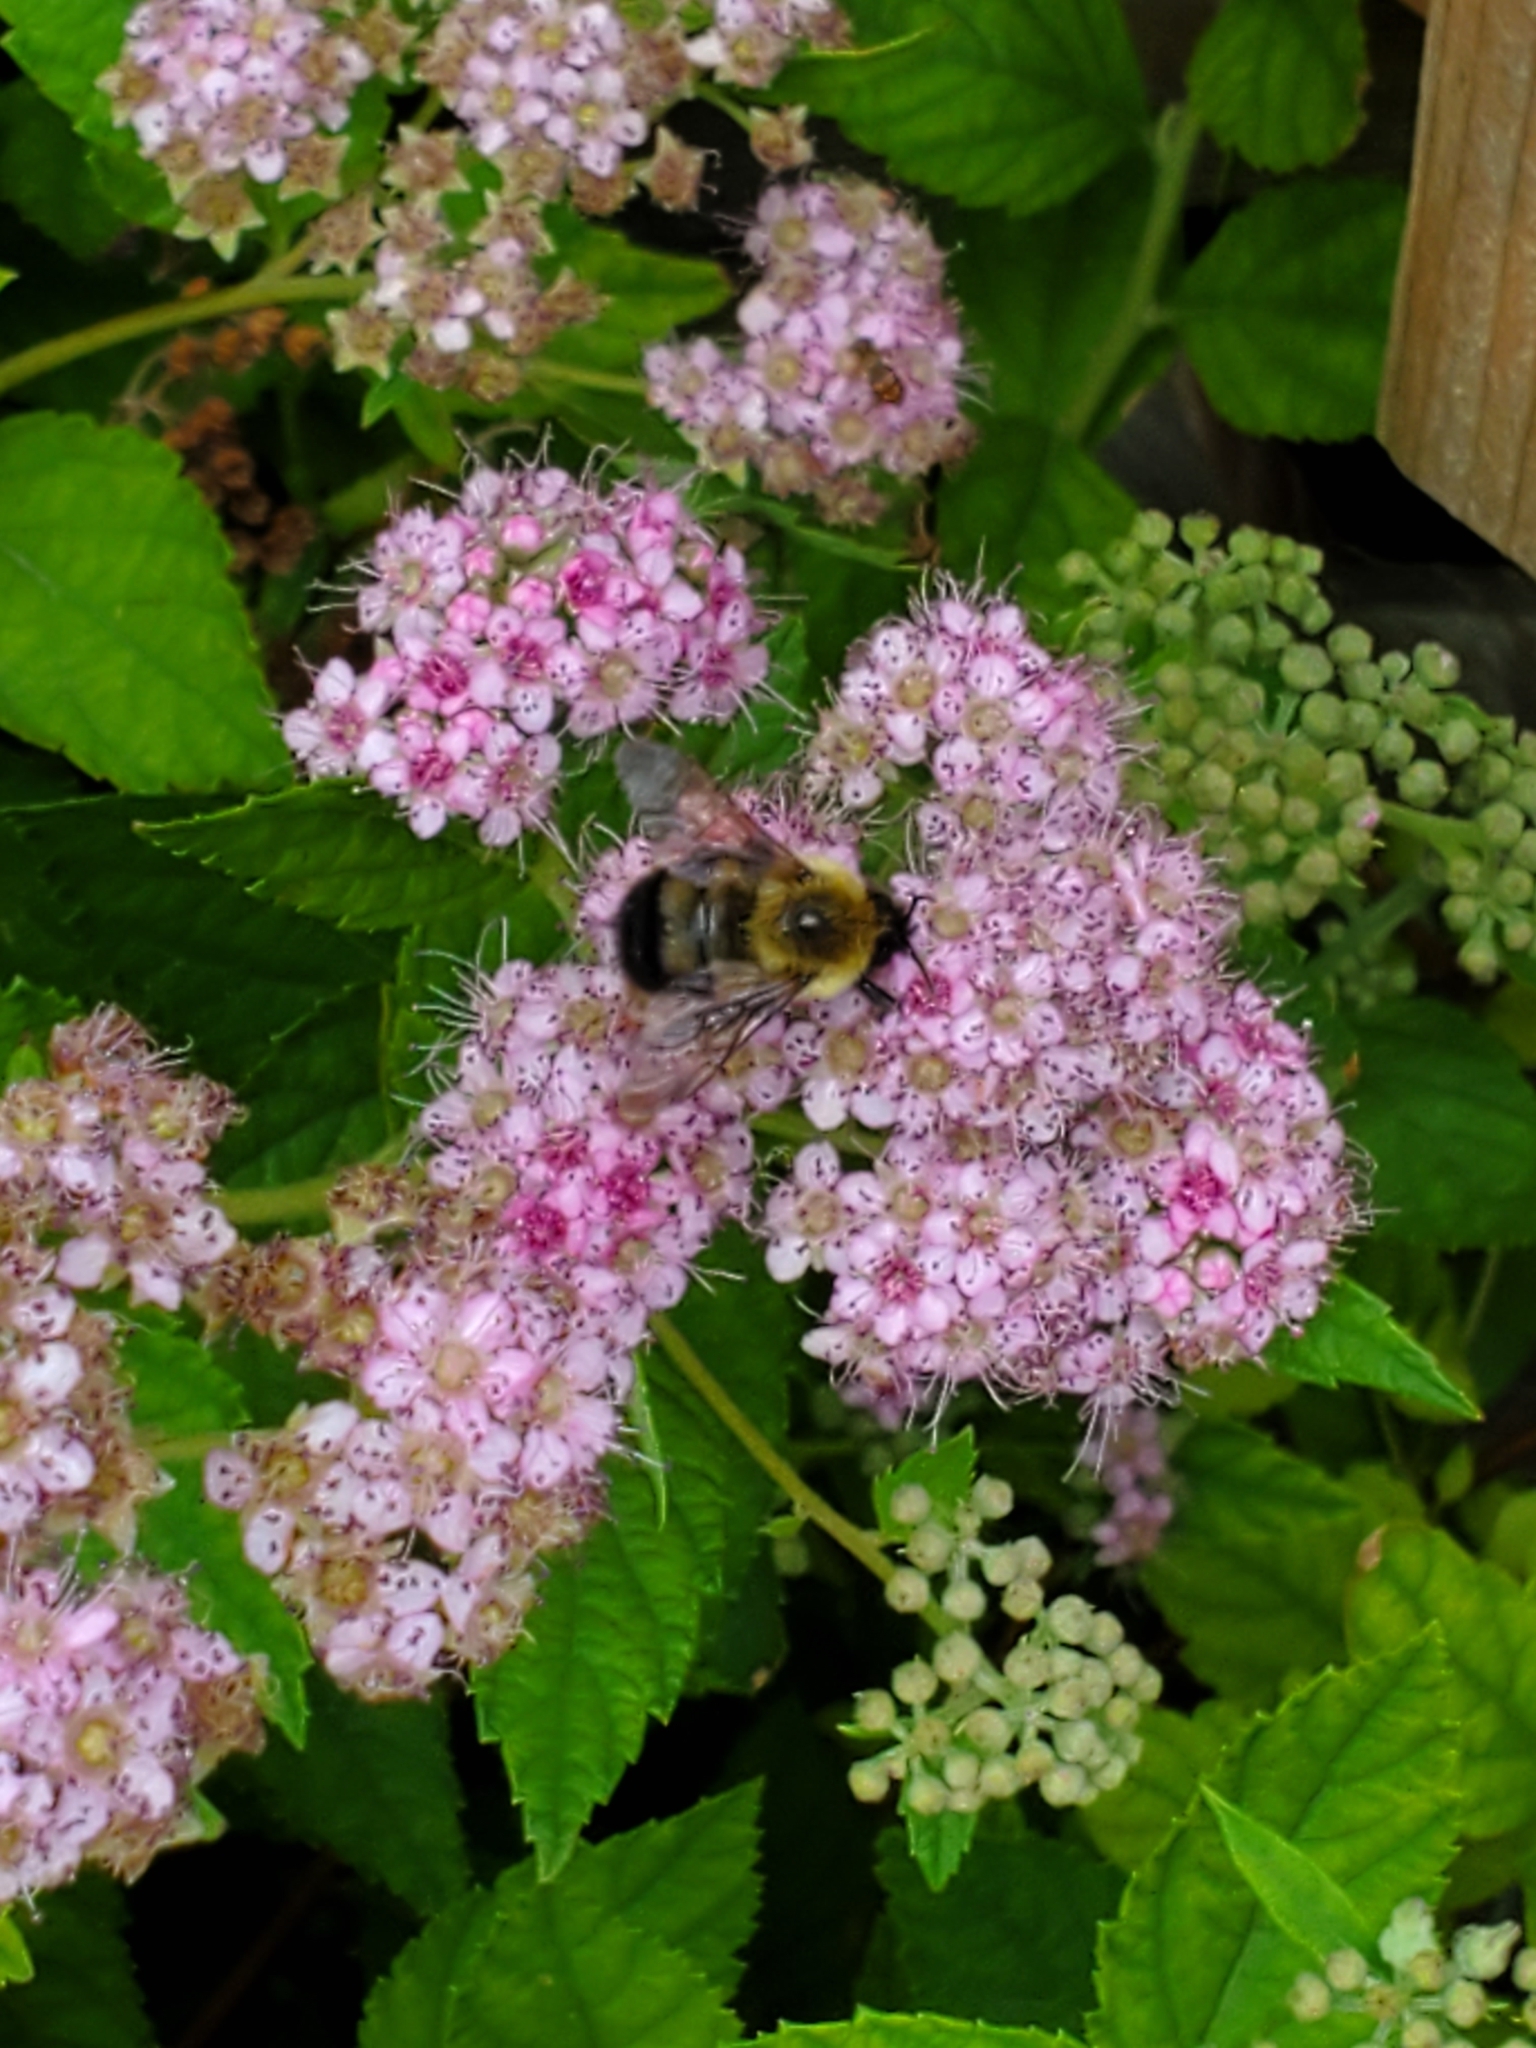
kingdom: Animalia
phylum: Arthropoda
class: Insecta
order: Hymenoptera
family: Apidae
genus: Pyrobombus
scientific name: Pyrobombus
